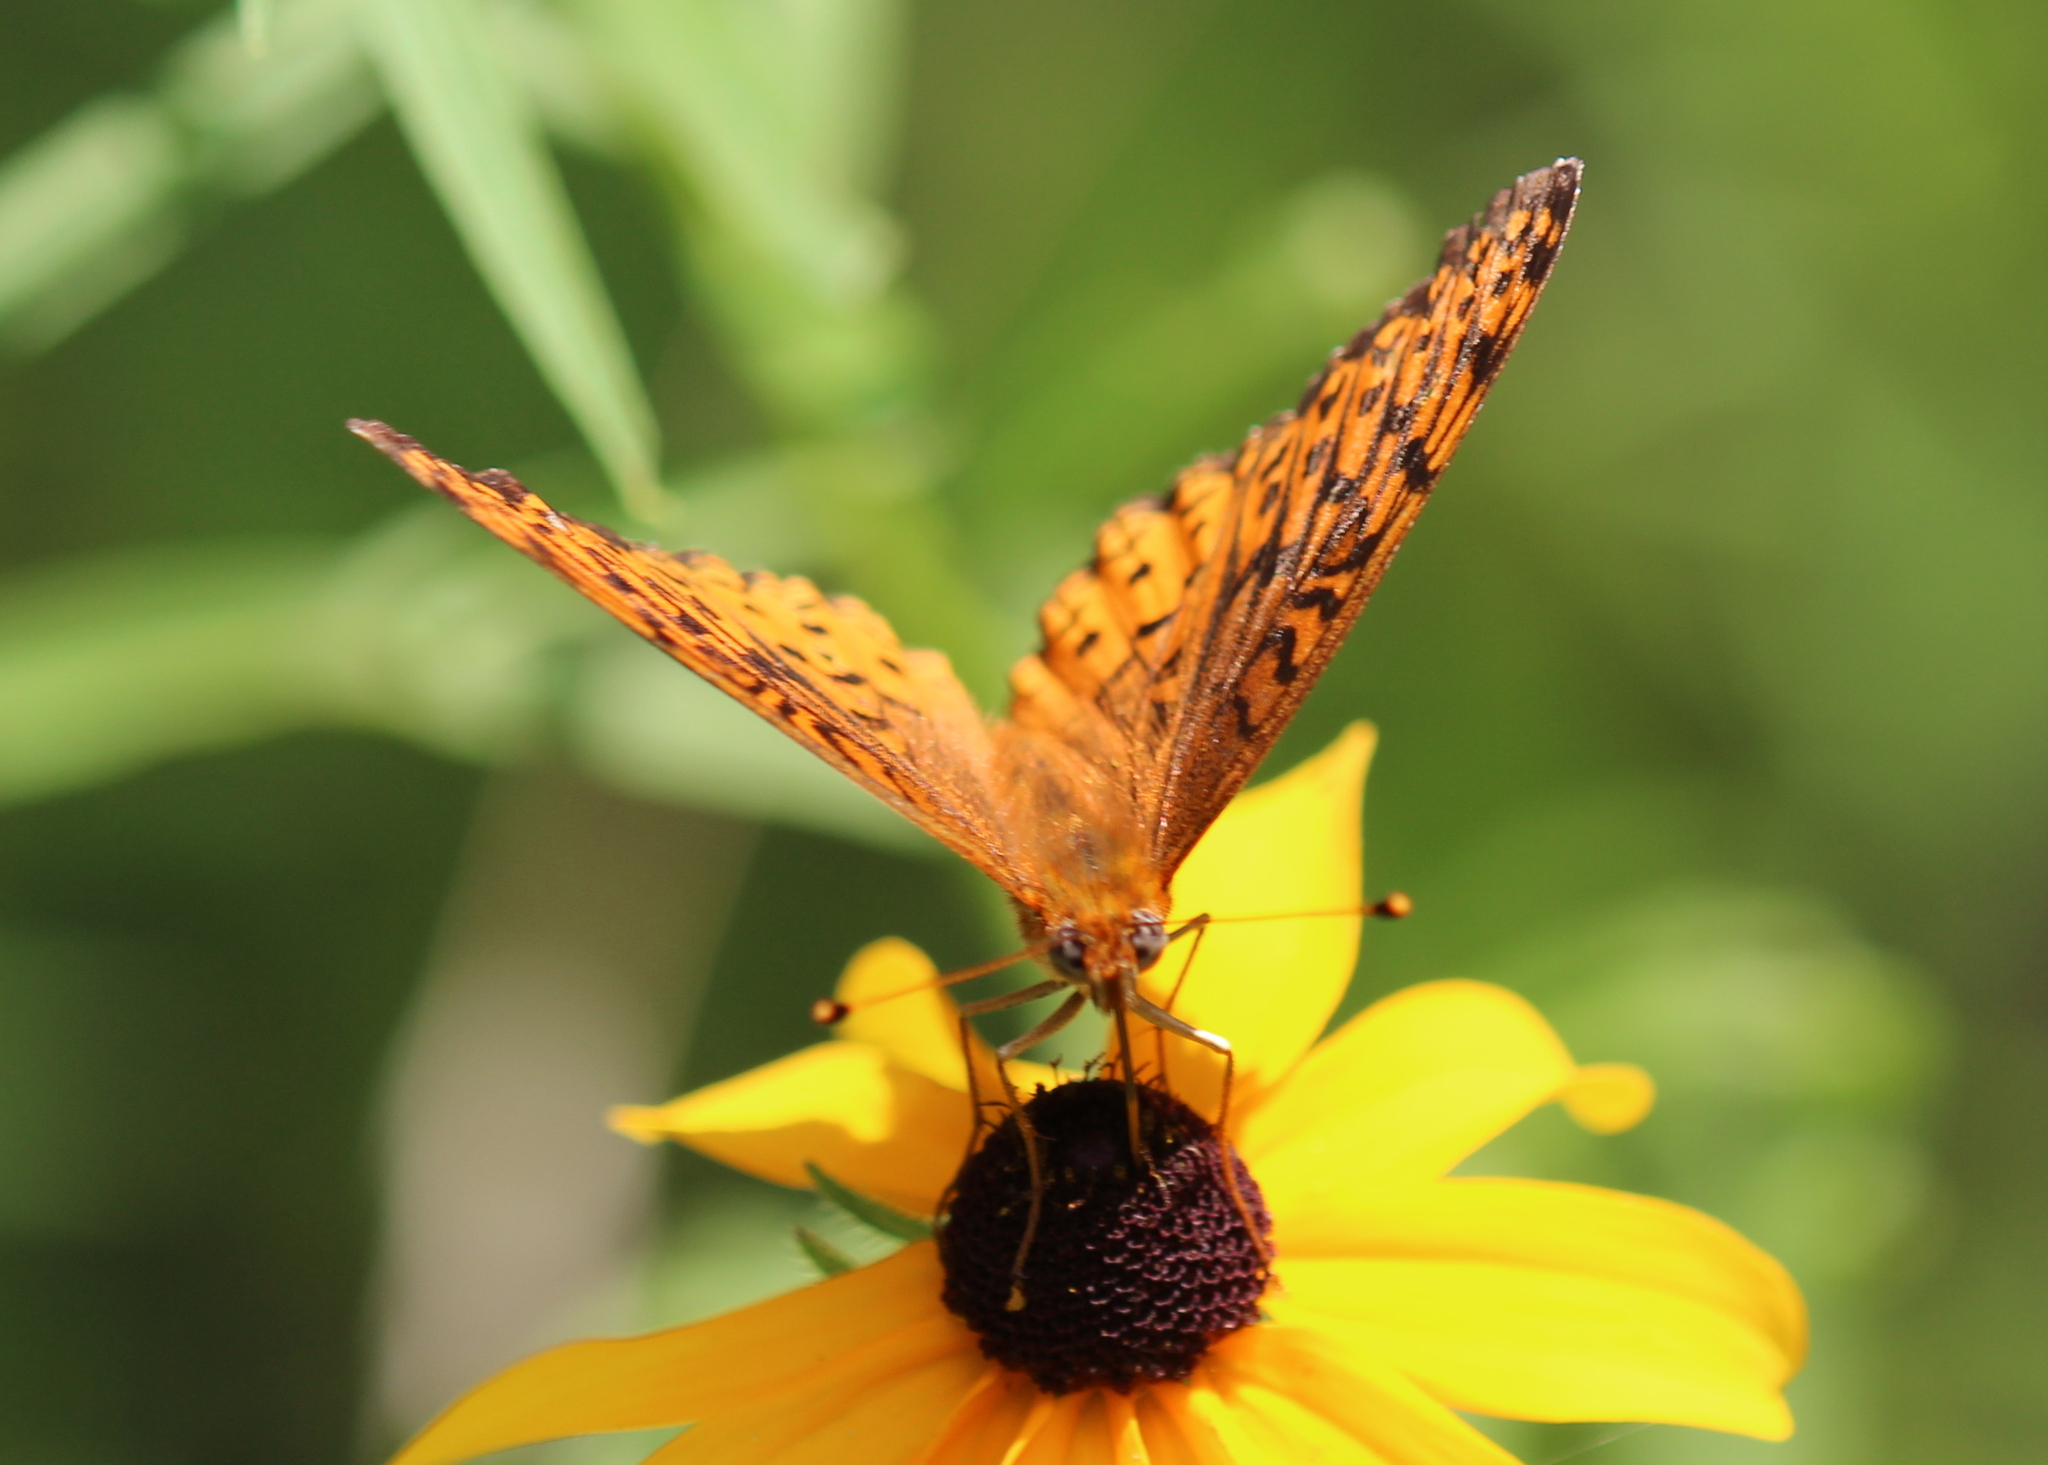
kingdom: Animalia
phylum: Arthropoda
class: Insecta
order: Lepidoptera
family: Nymphalidae
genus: Speyeria
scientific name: Speyeria atlantis
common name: Atlantis fritillary
